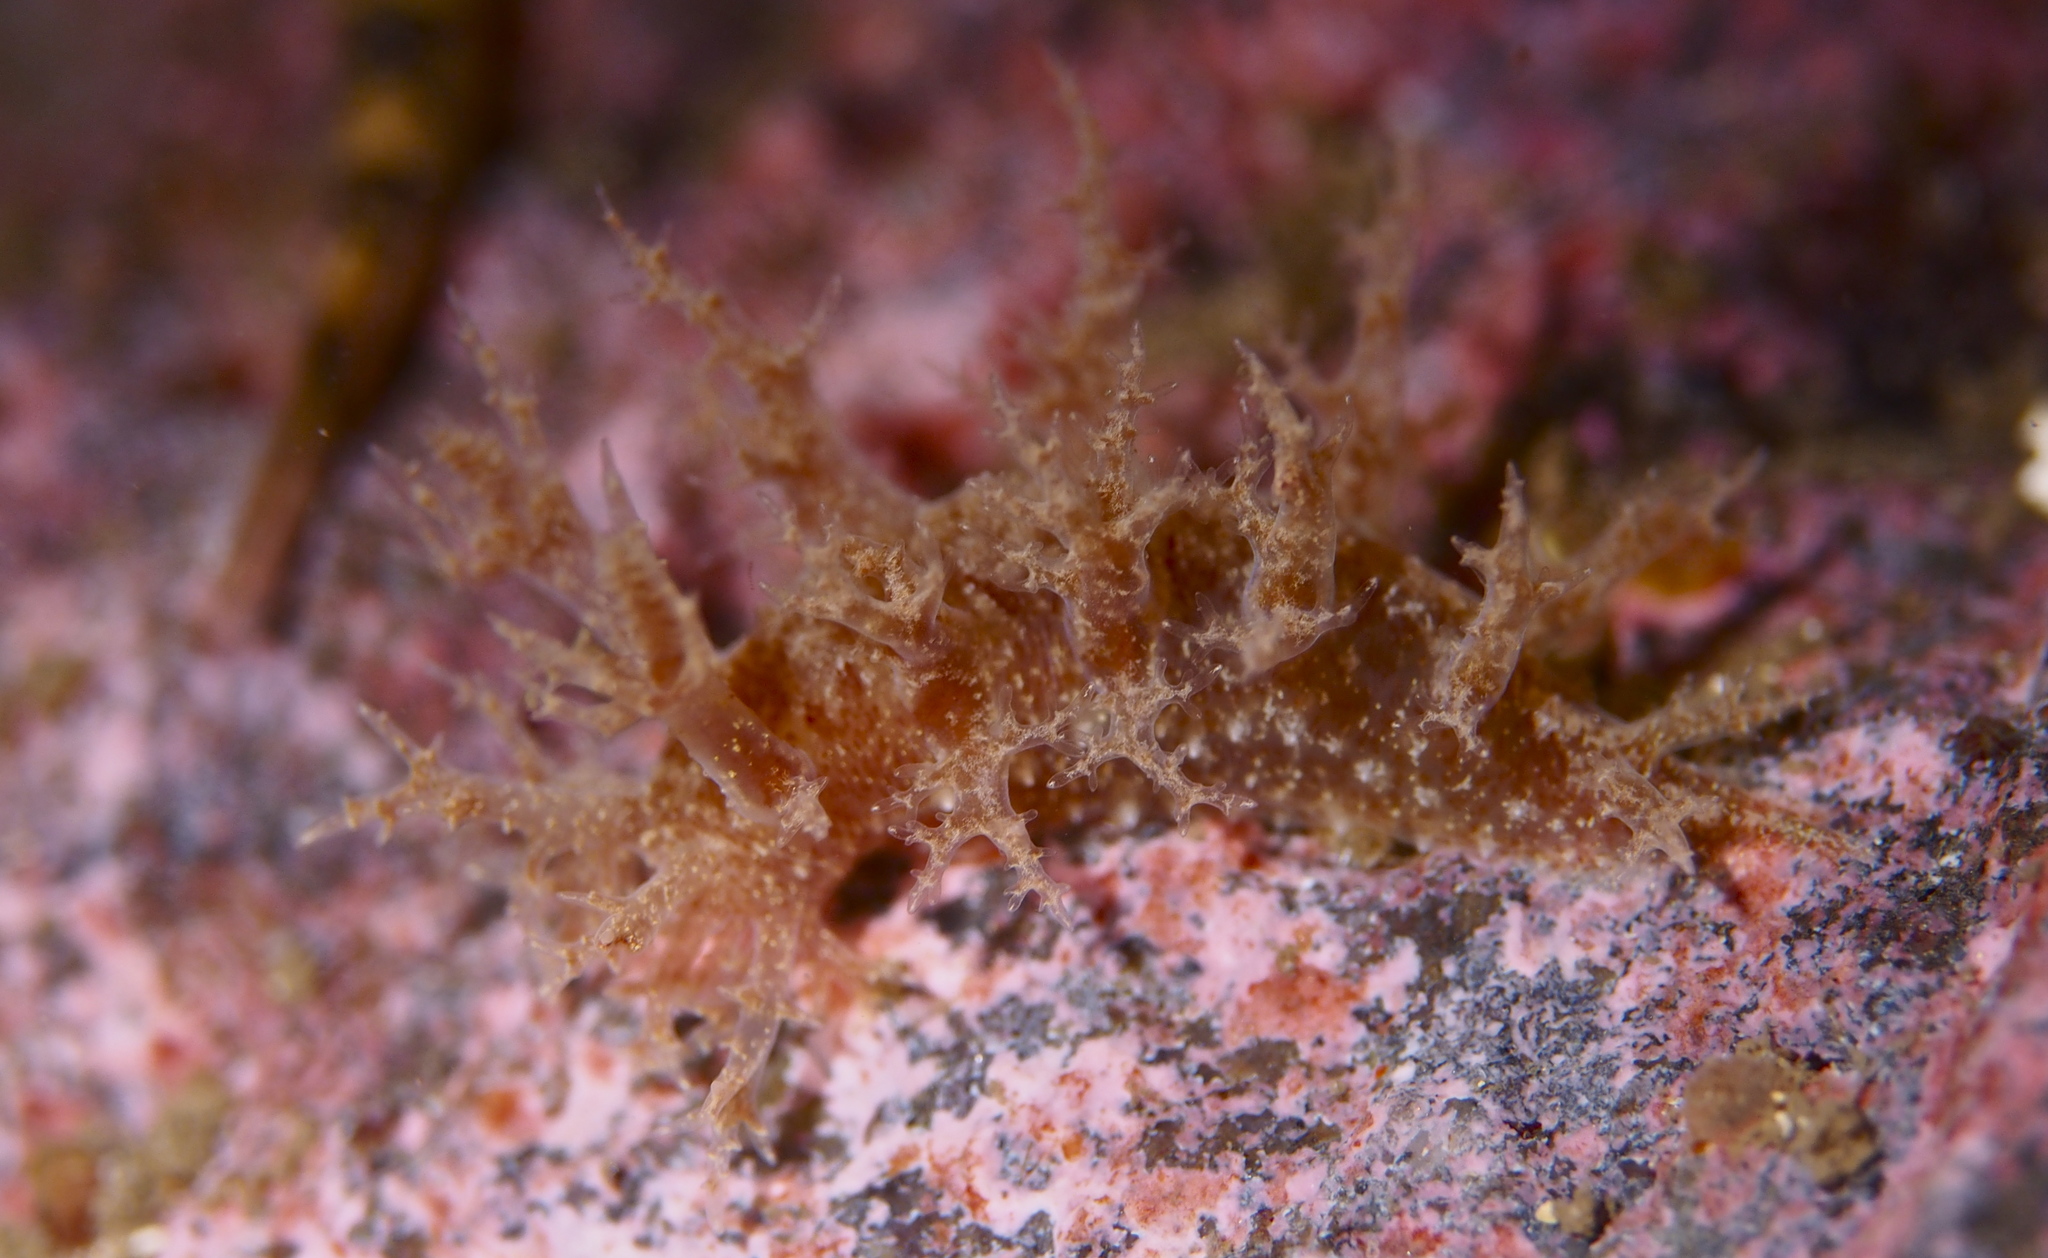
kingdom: Animalia
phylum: Mollusca
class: Gastropoda
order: Nudibranchia
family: Dendronotidae
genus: Dendronotus
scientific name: Dendronotus frondosus
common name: Bushy-backed nudibranch
